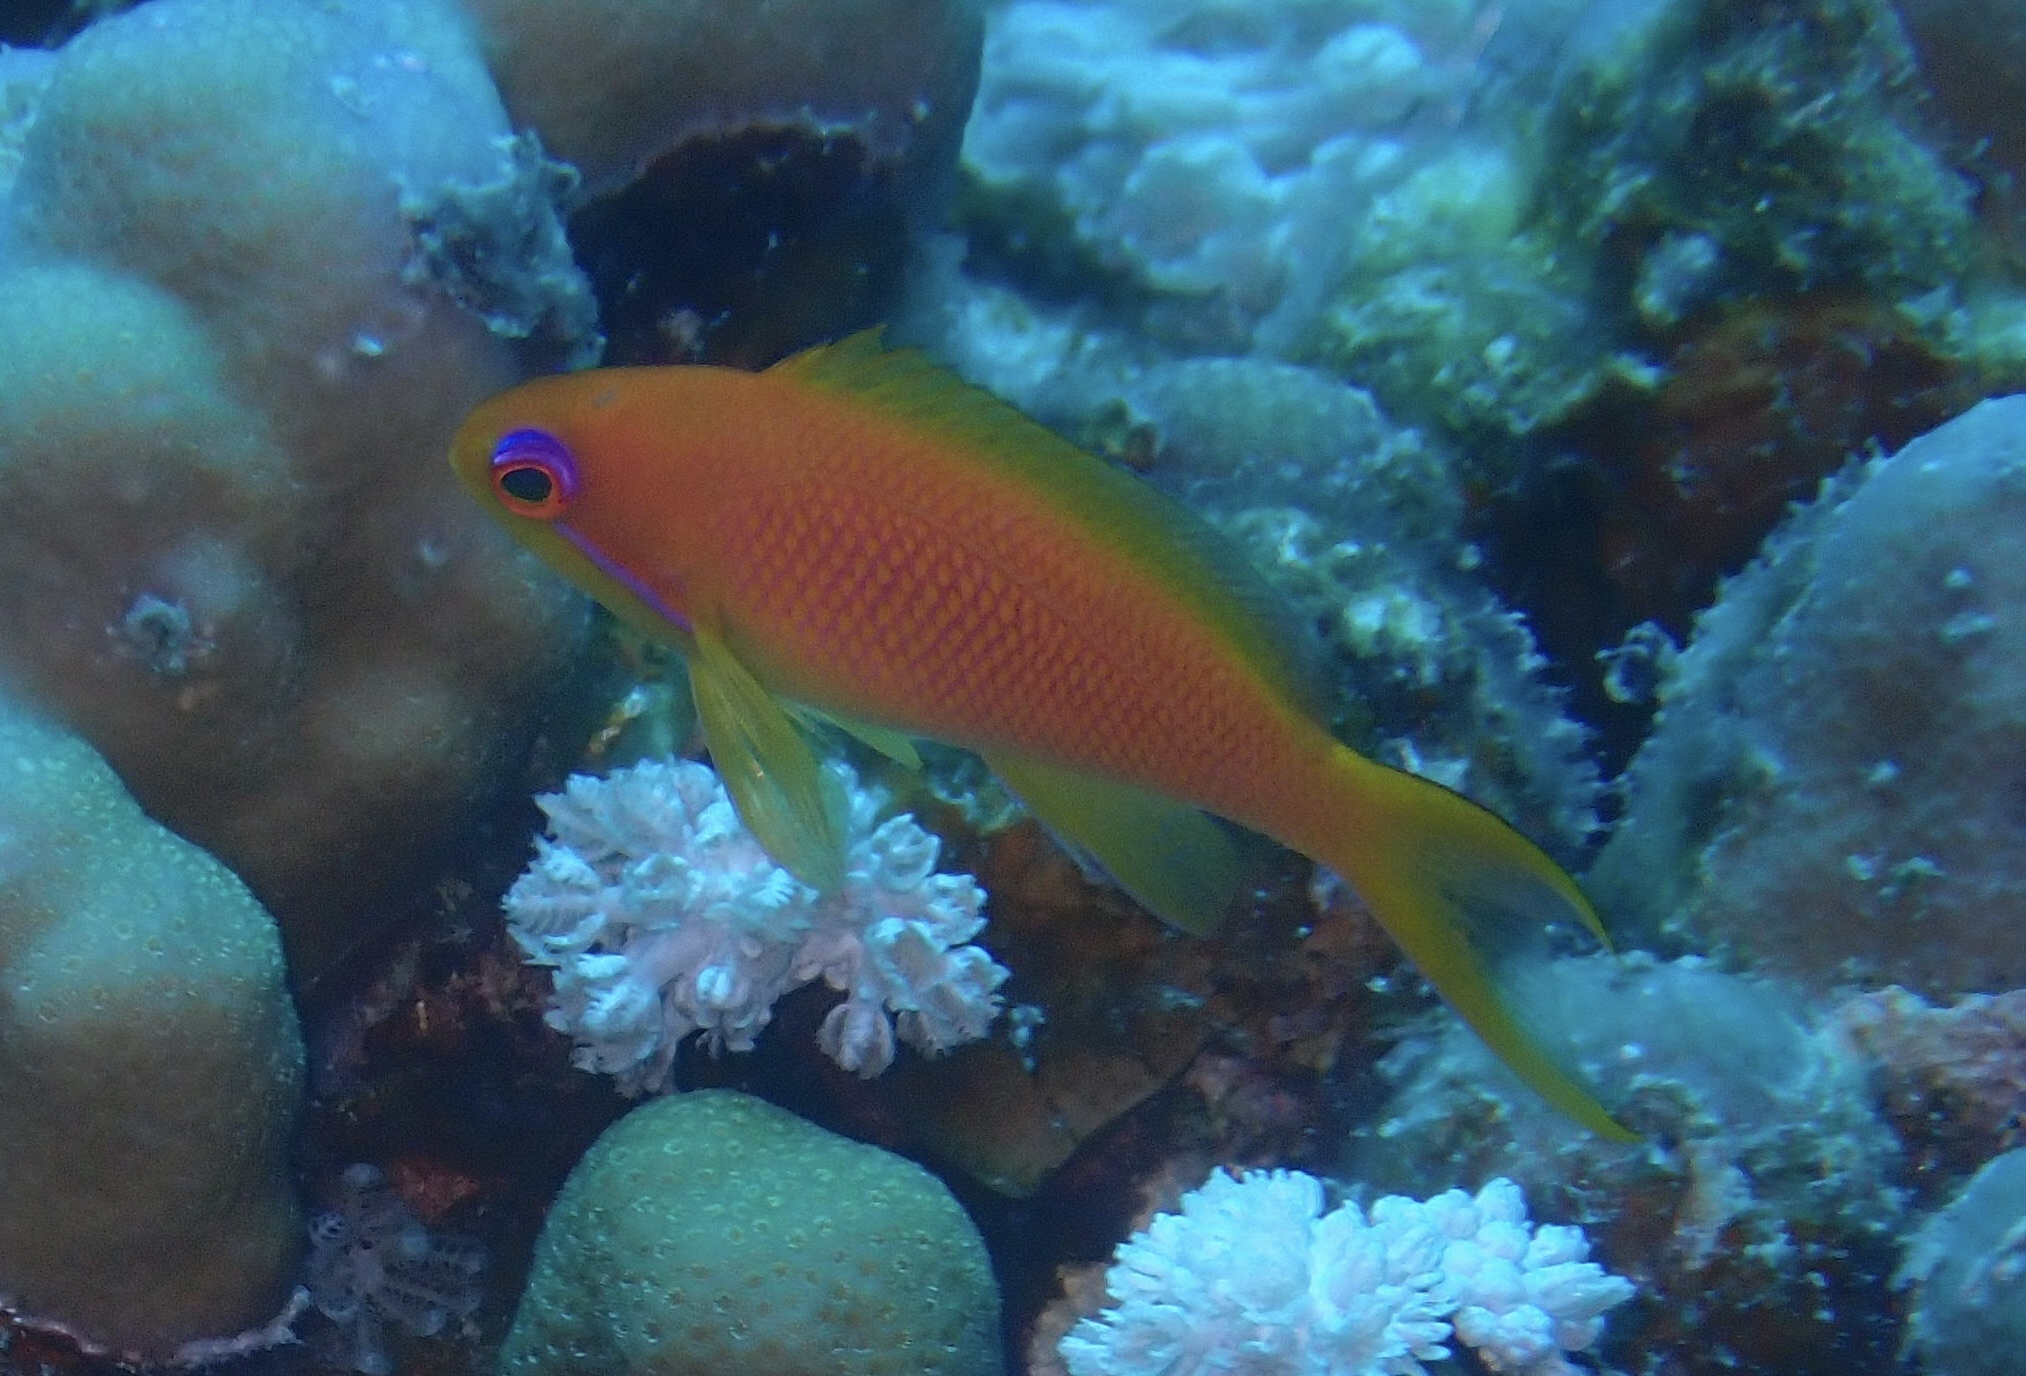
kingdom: Animalia
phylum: Chordata
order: Perciformes
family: Serranidae
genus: Pseudanthias
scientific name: Pseudanthias squamipinnis
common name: Scalefin anthias
